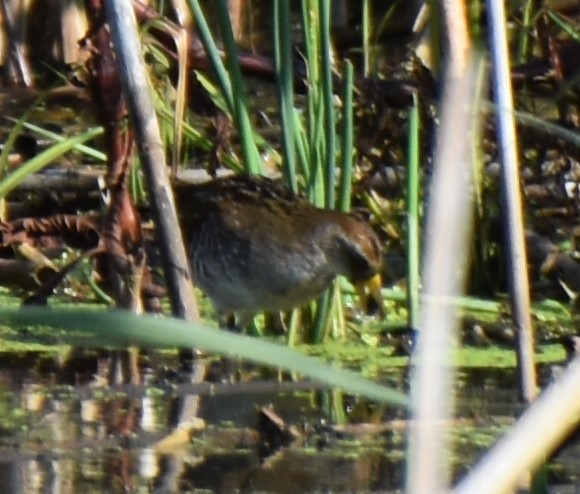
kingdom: Animalia
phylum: Chordata
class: Aves
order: Gruiformes
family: Rallidae
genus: Porzana
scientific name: Porzana carolina
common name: Sora
